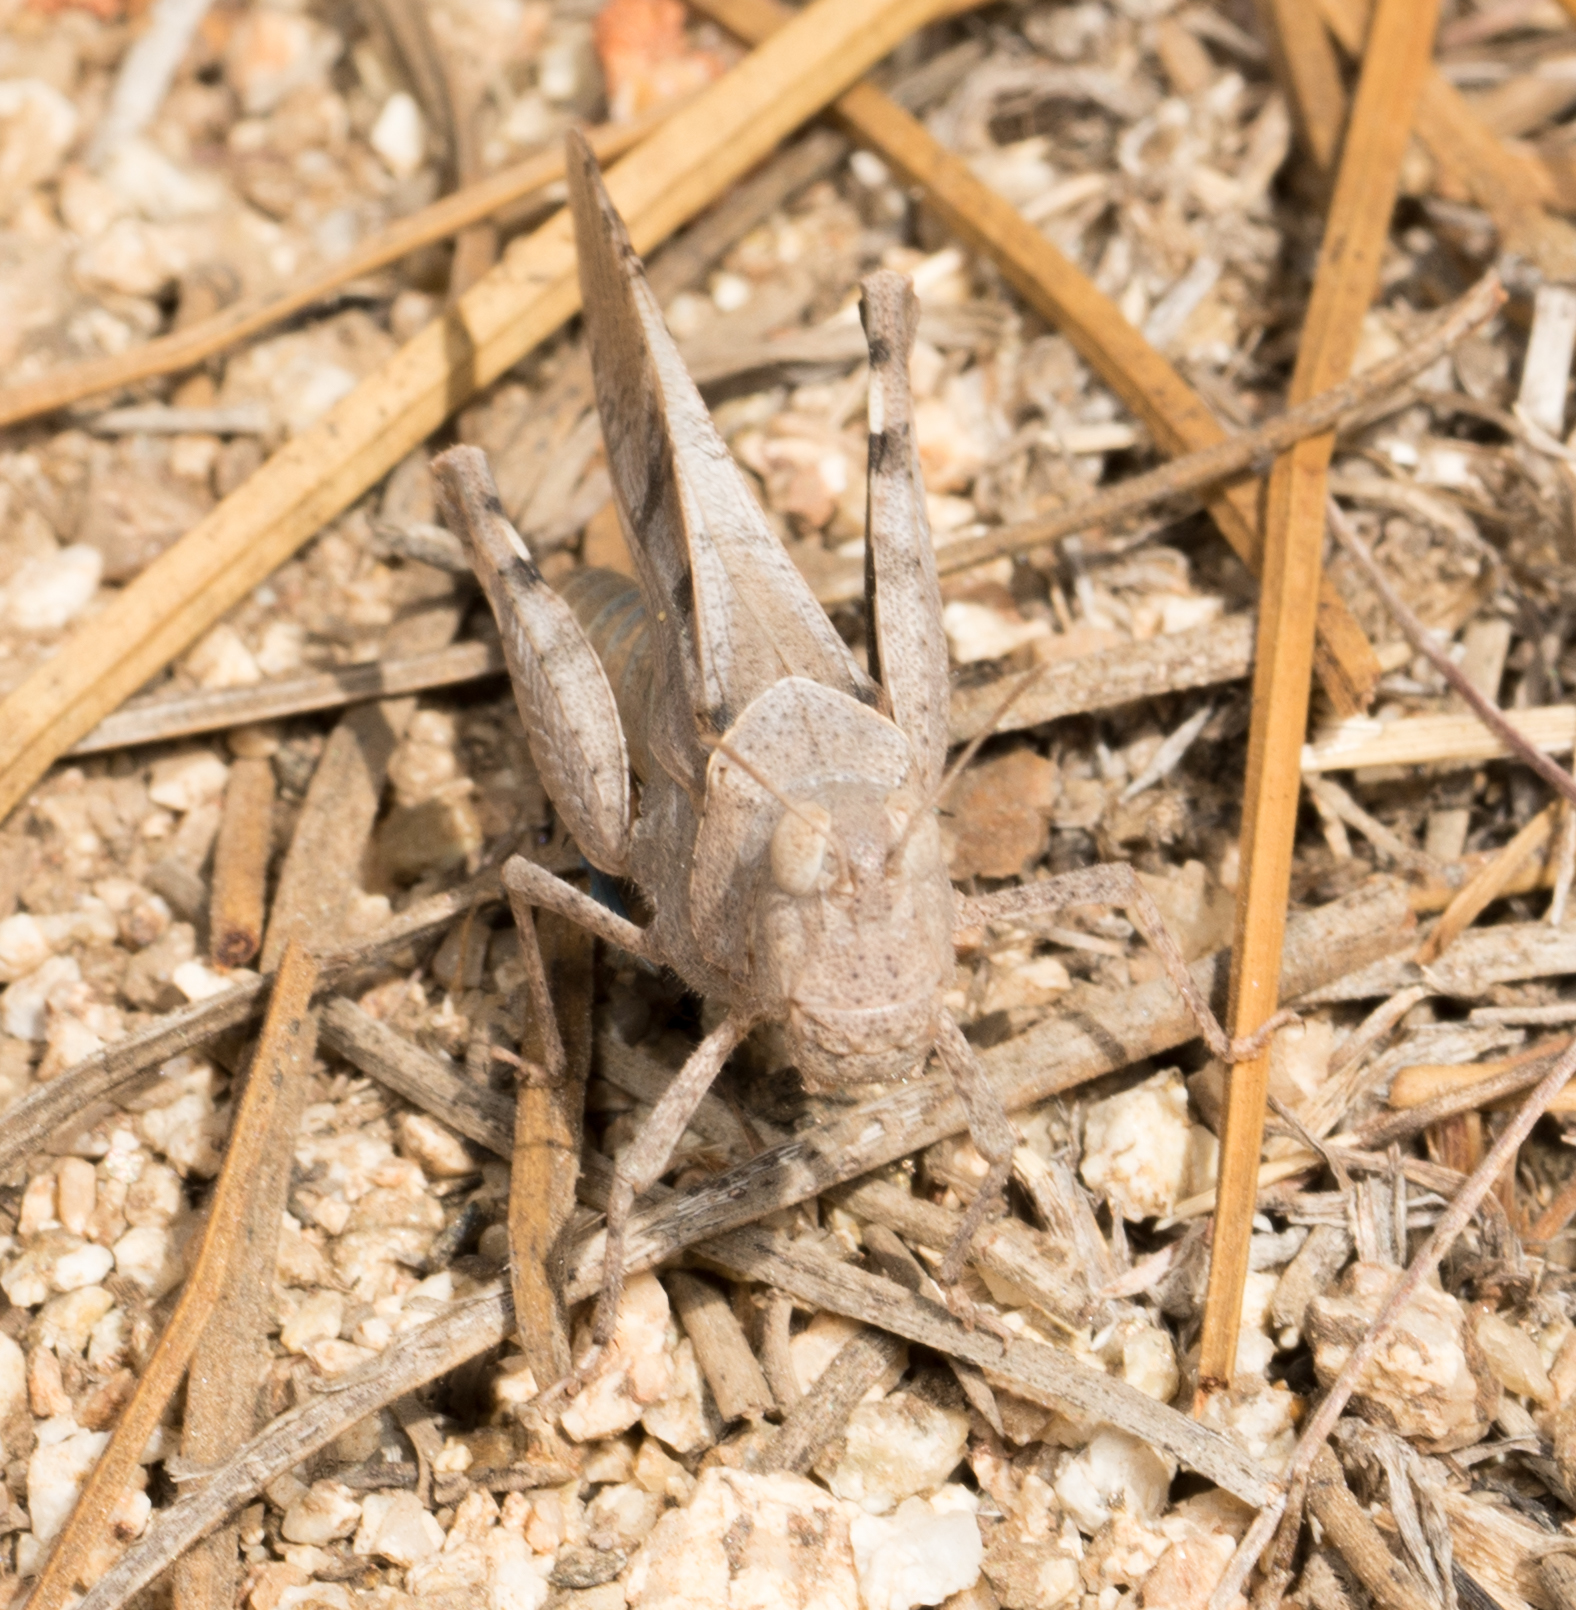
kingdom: Animalia
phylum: Arthropoda
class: Insecta
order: Orthoptera
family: Acrididae
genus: Trimerotropis
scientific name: Trimerotropis thalassica
